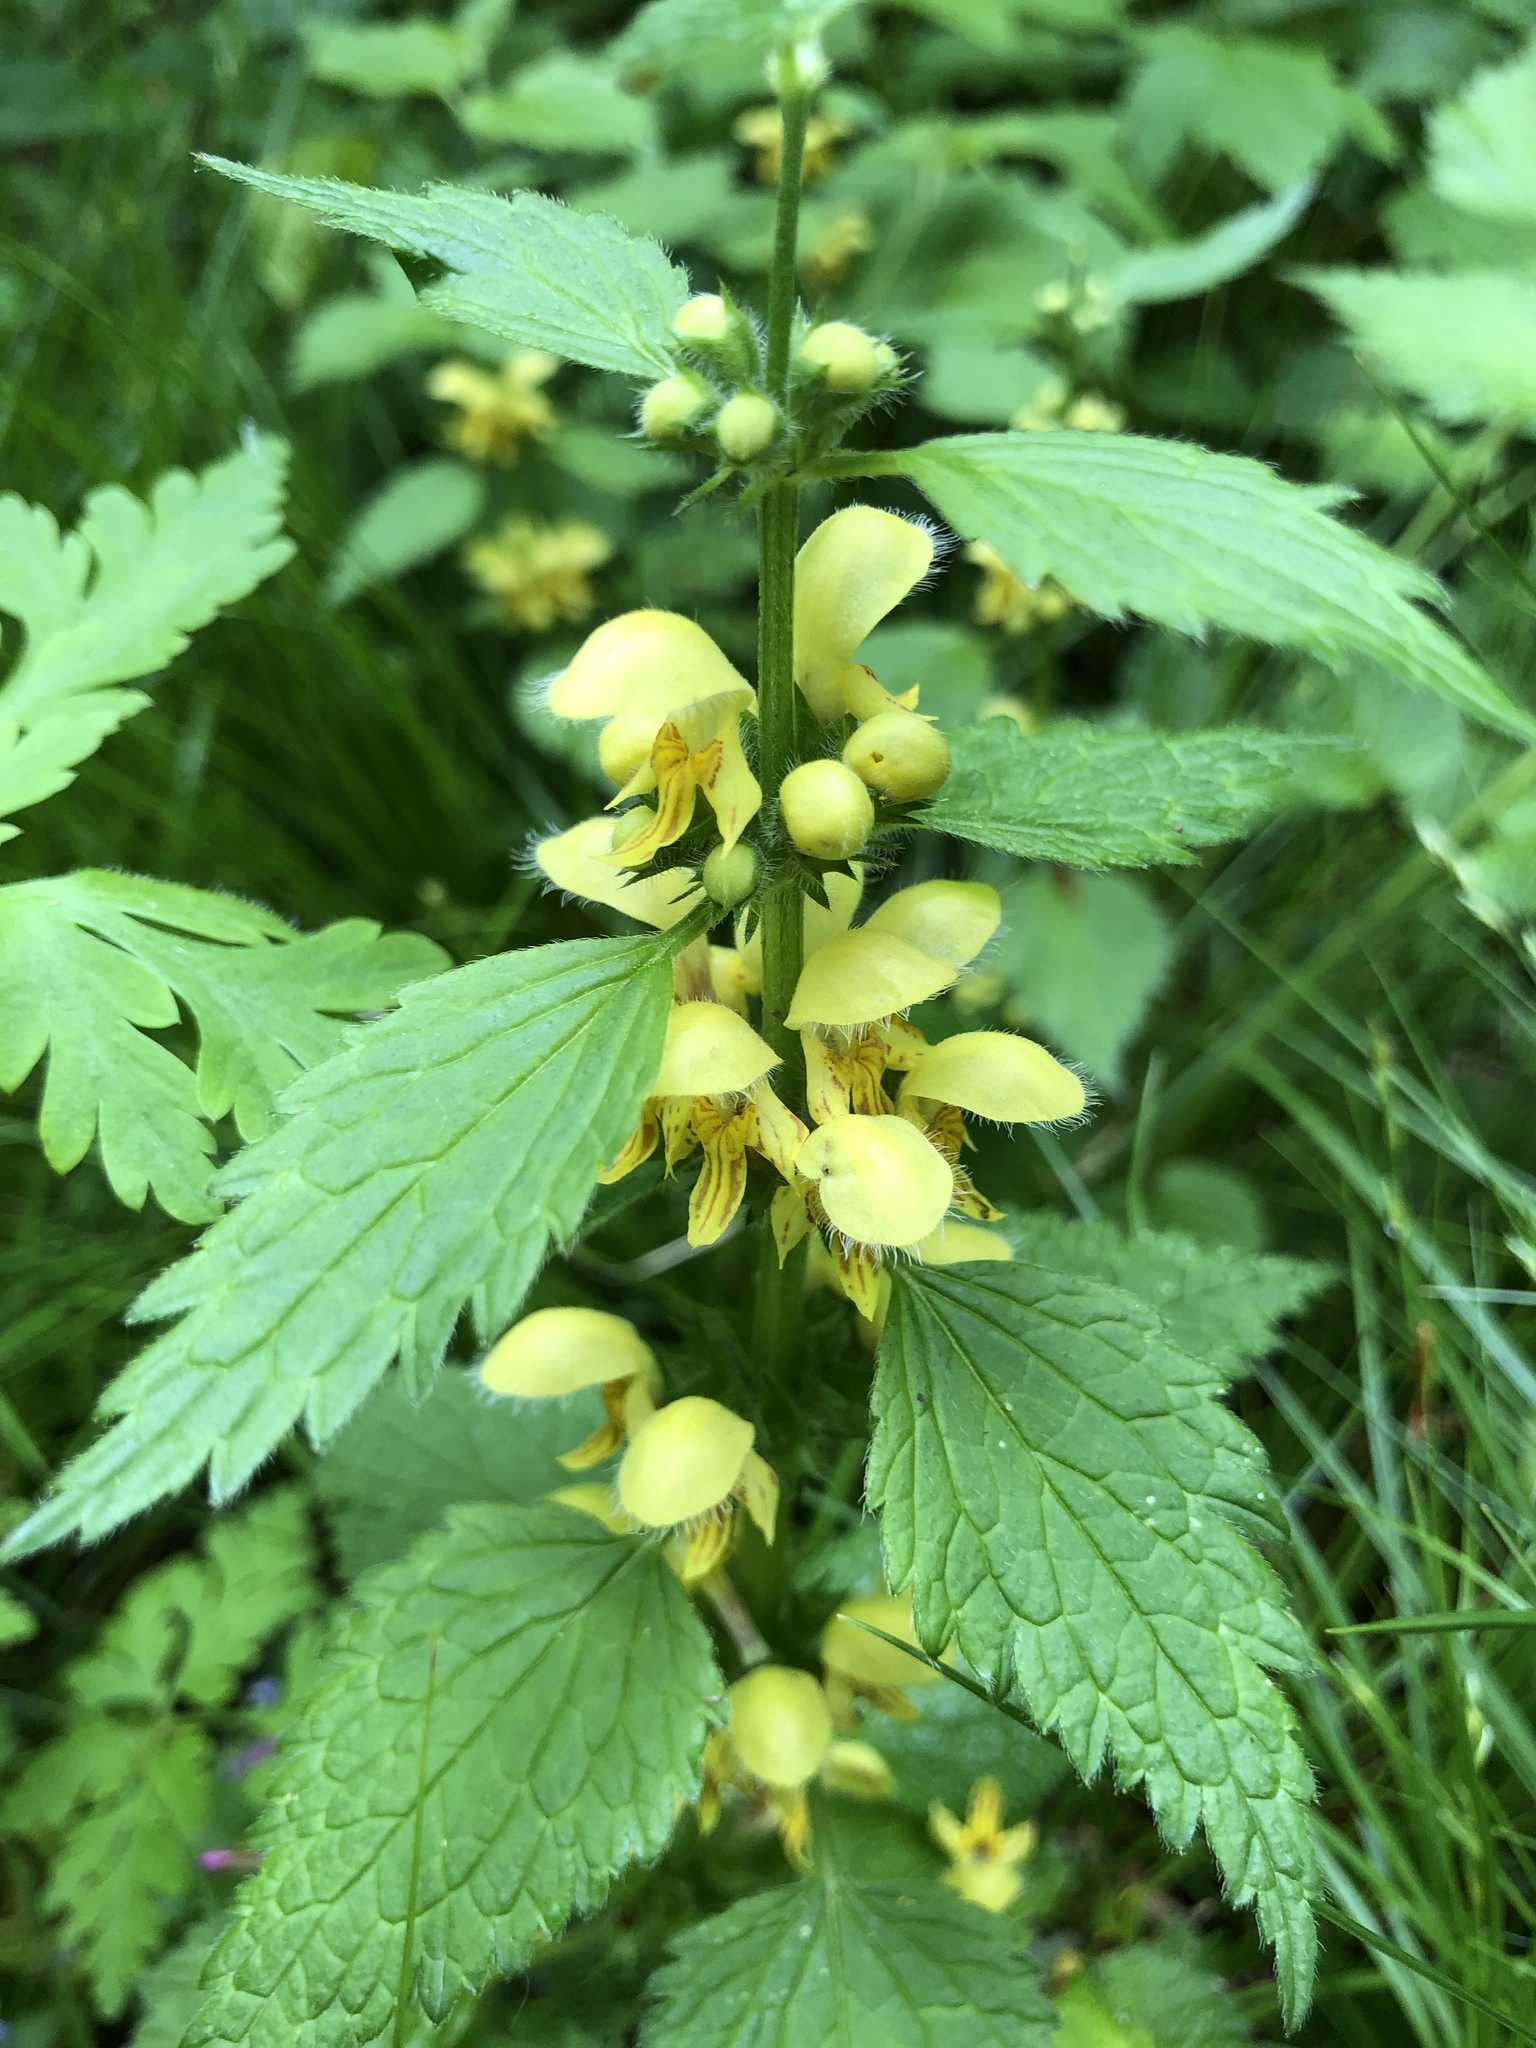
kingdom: Plantae
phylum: Tracheophyta
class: Magnoliopsida
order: Lamiales
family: Lamiaceae
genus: Lamium
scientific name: Lamium galeobdolon
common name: Yellow archangel
